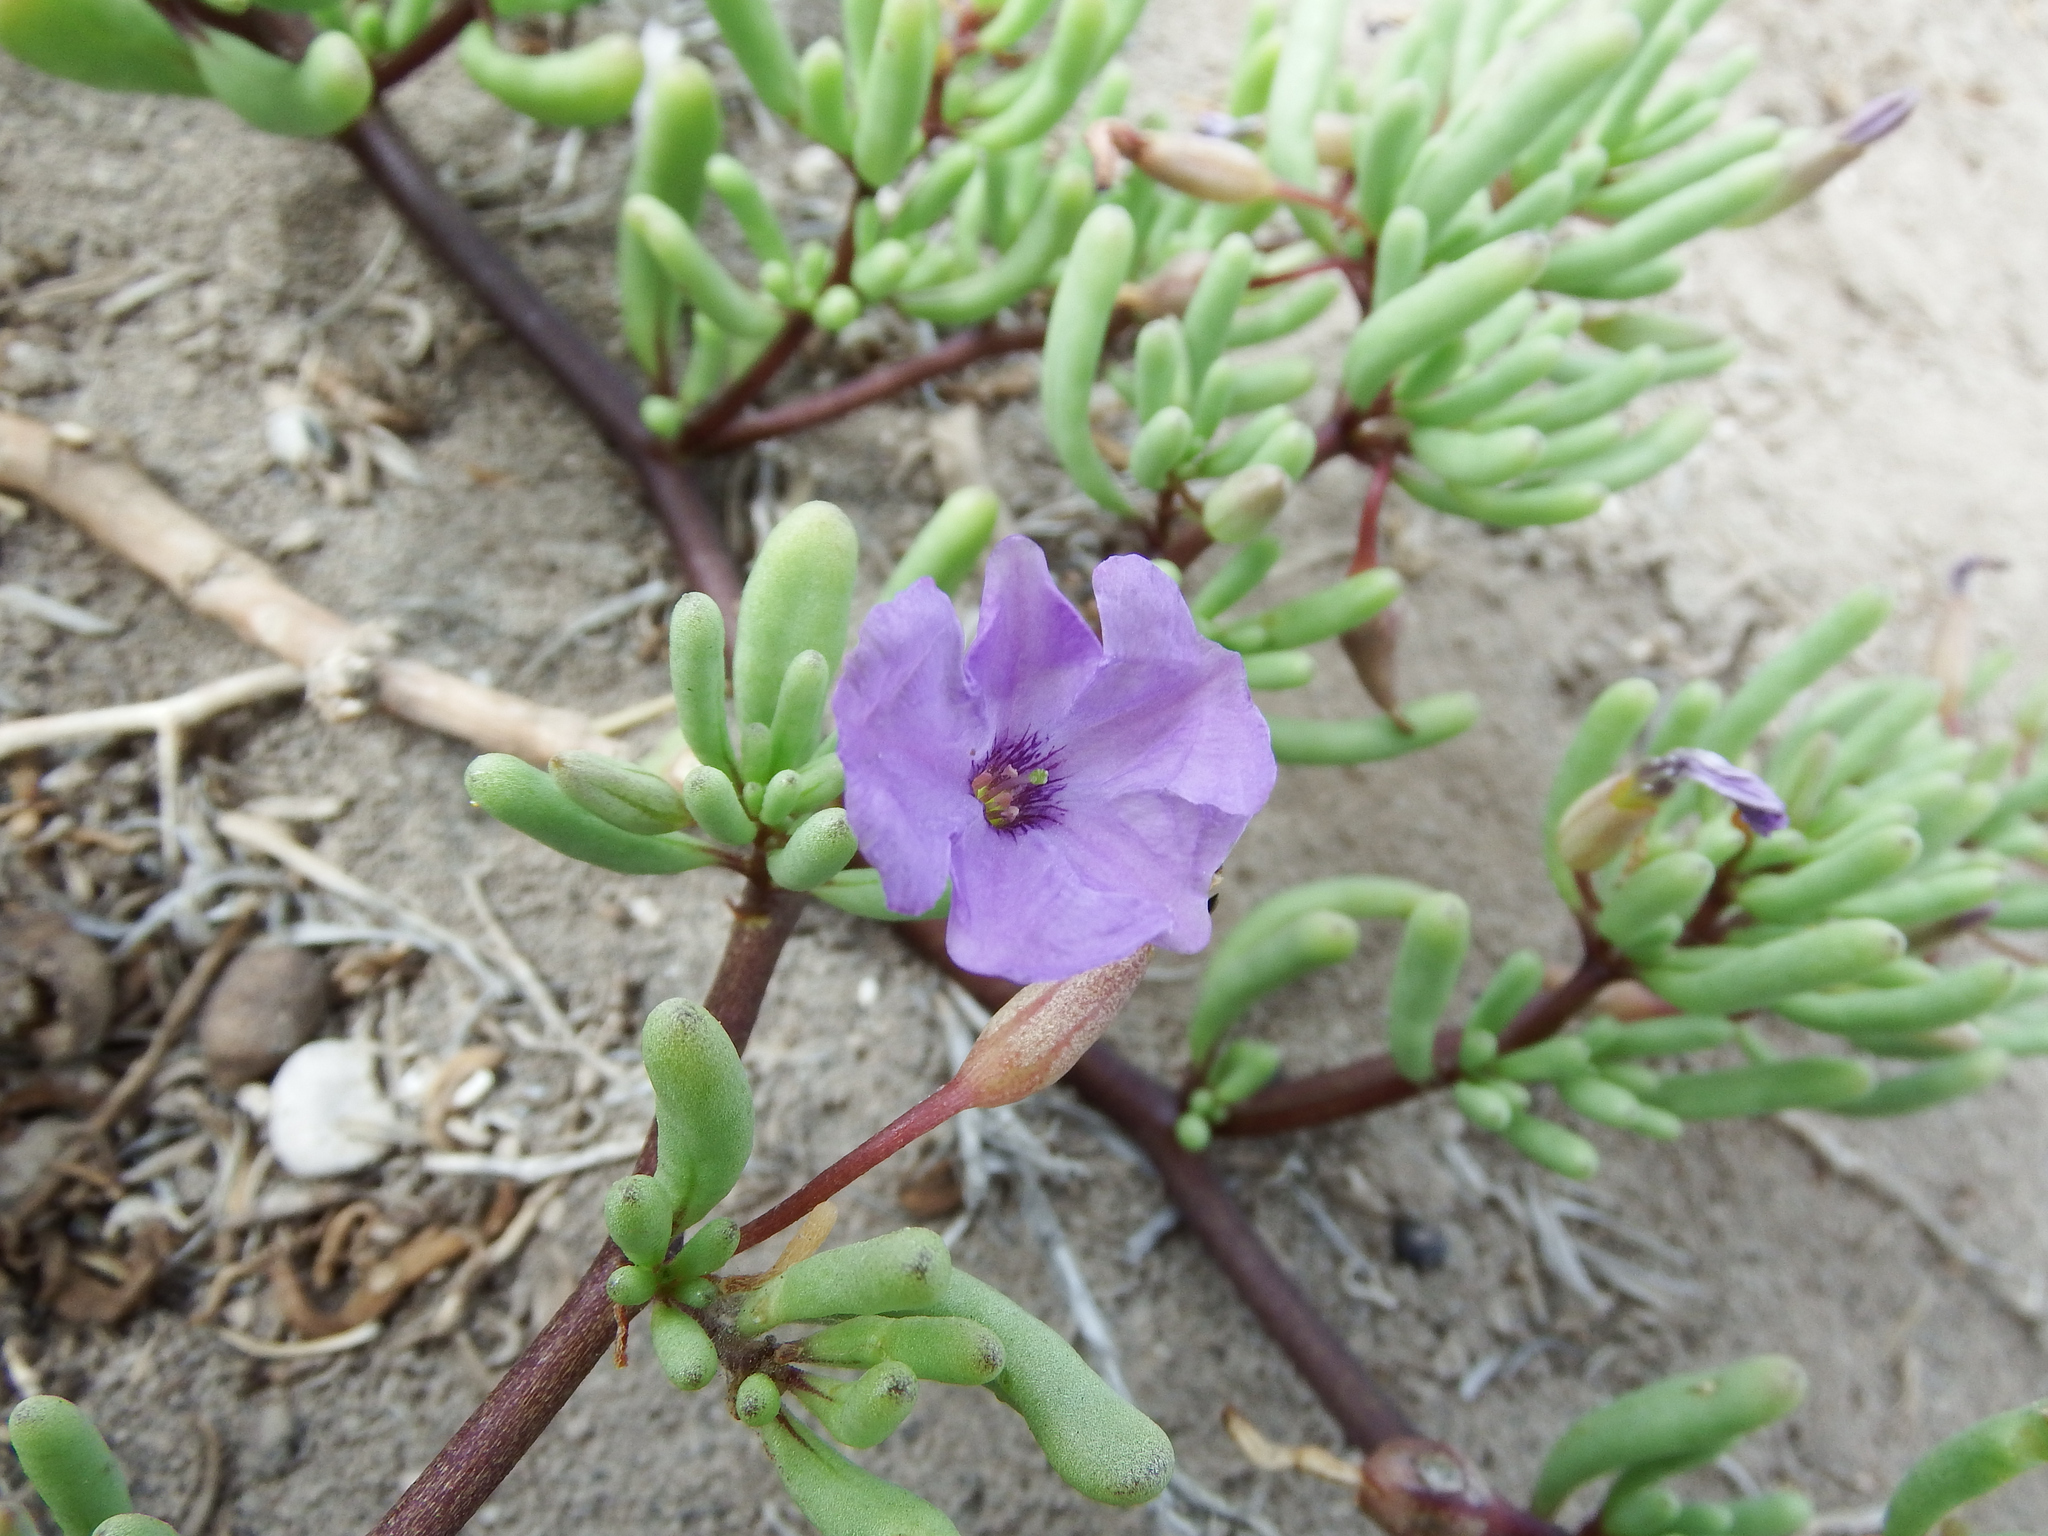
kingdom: Plantae
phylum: Tracheophyta
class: Magnoliopsida
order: Solanales
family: Solanaceae
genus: Nolana
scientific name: Nolana tarapacana
